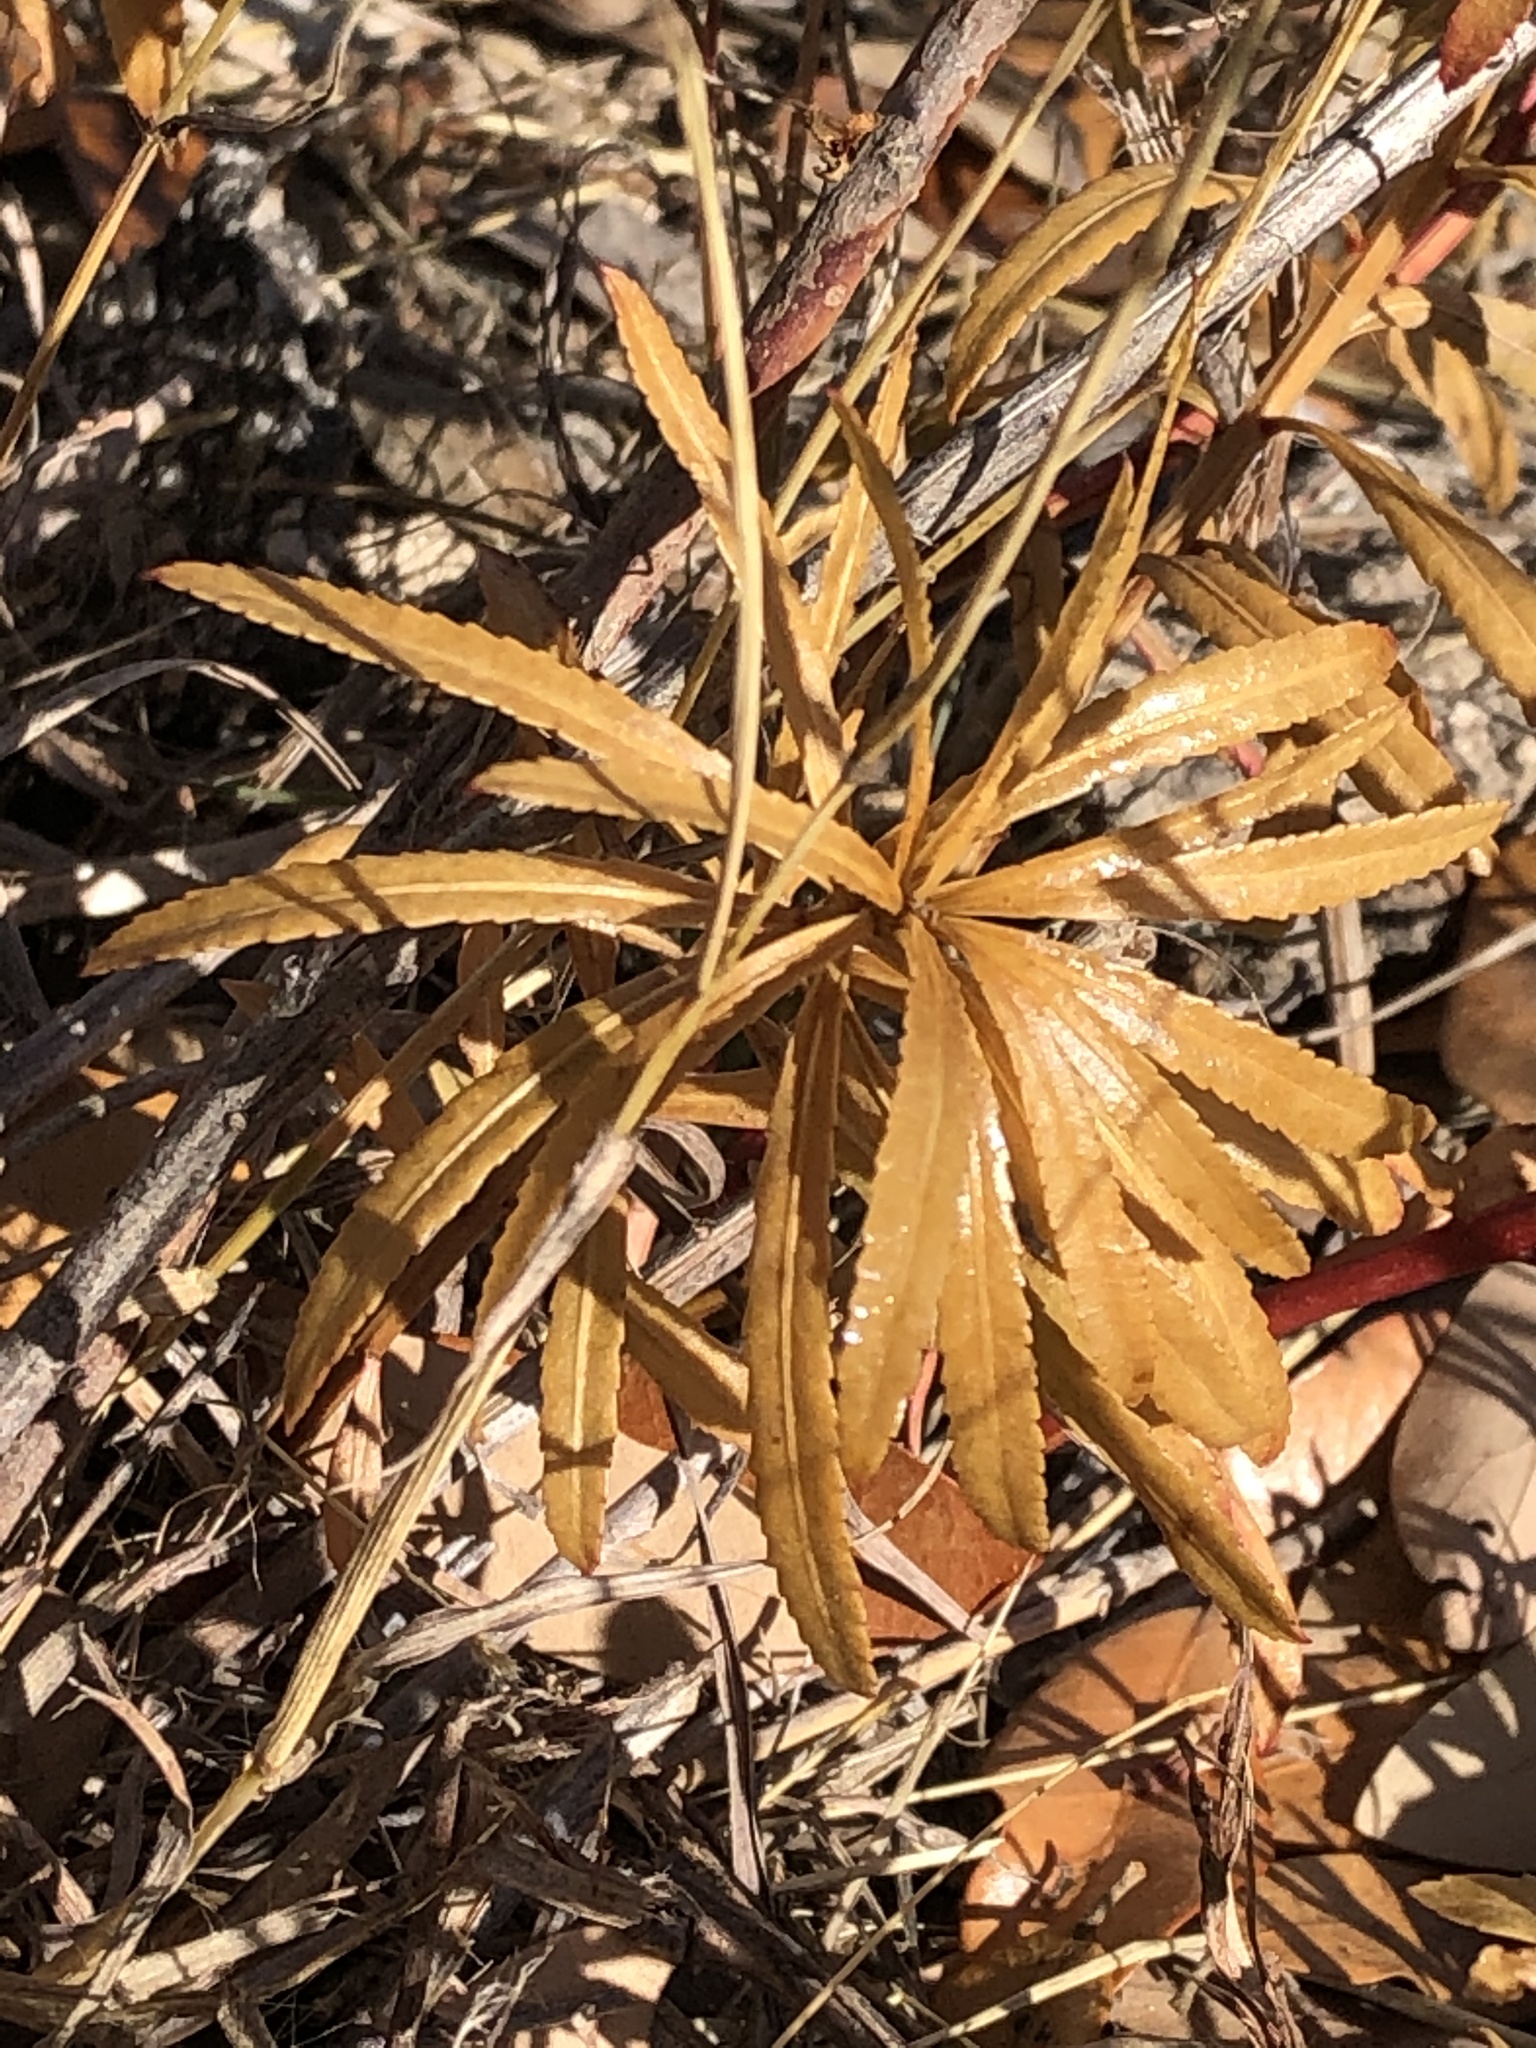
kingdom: Plantae
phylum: Tracheophyta
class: Magnoliopsida
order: Malpighiales
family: Euphorbiaceae
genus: Stillingia
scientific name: Stillingia texana
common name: Texas stillingia
